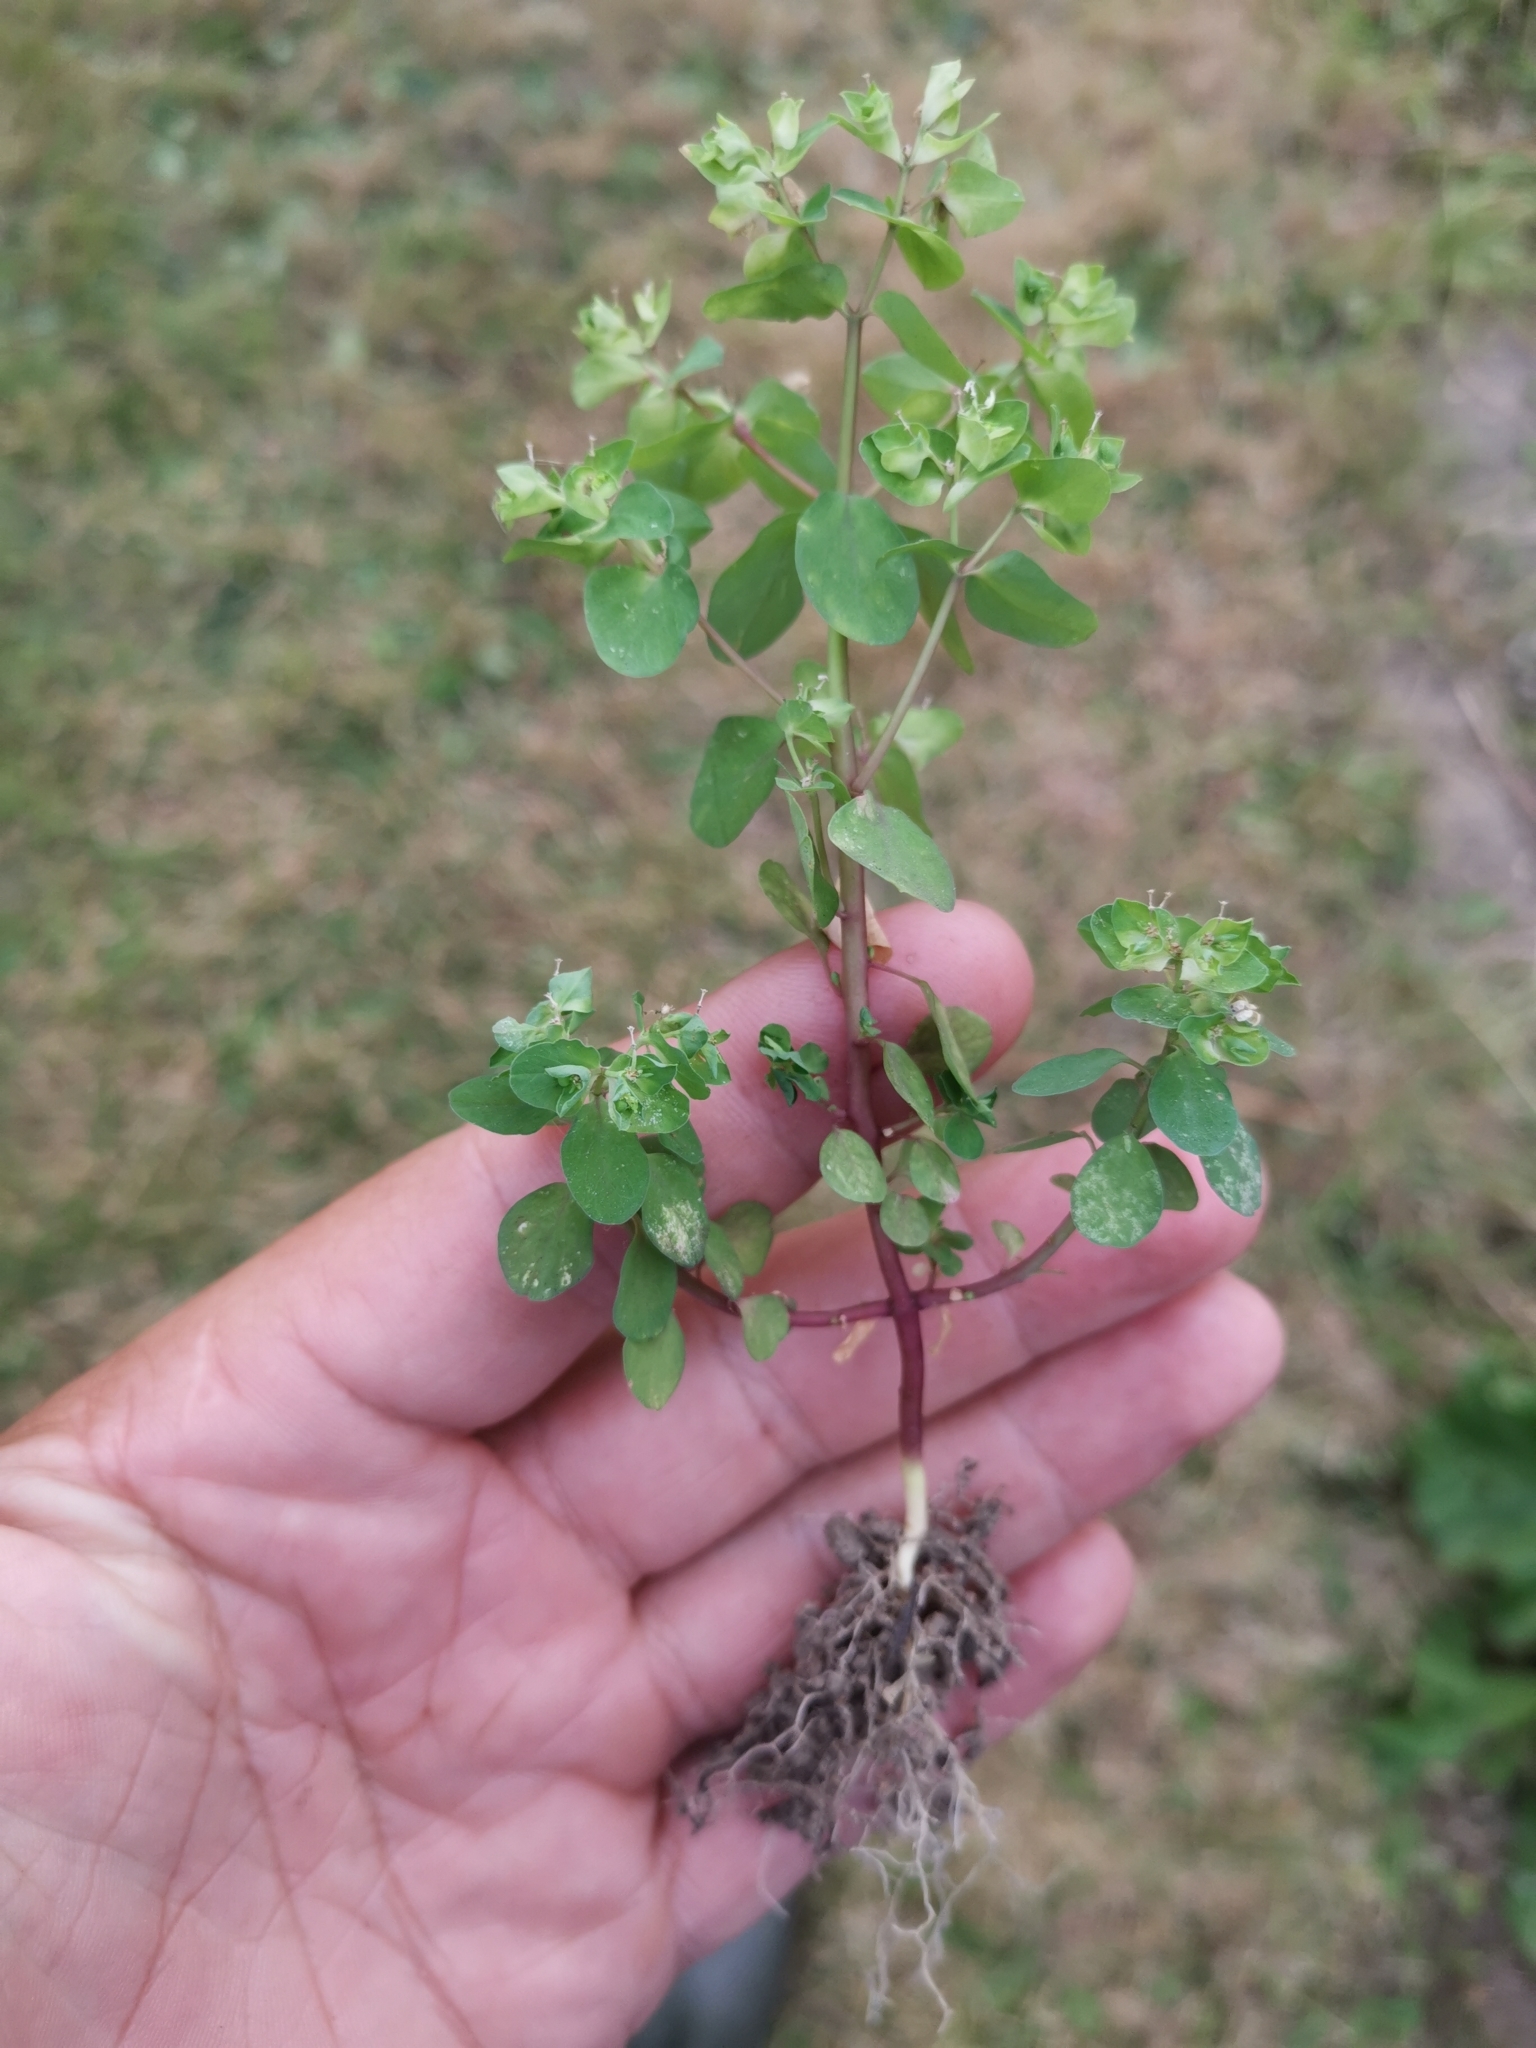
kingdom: Plantae
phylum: Tracheophyta
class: Magnoliopsida
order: Malpighiales
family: Euphorbiaceae
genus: Euphorbia
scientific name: Euphorbia peplus
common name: Petty spurge
